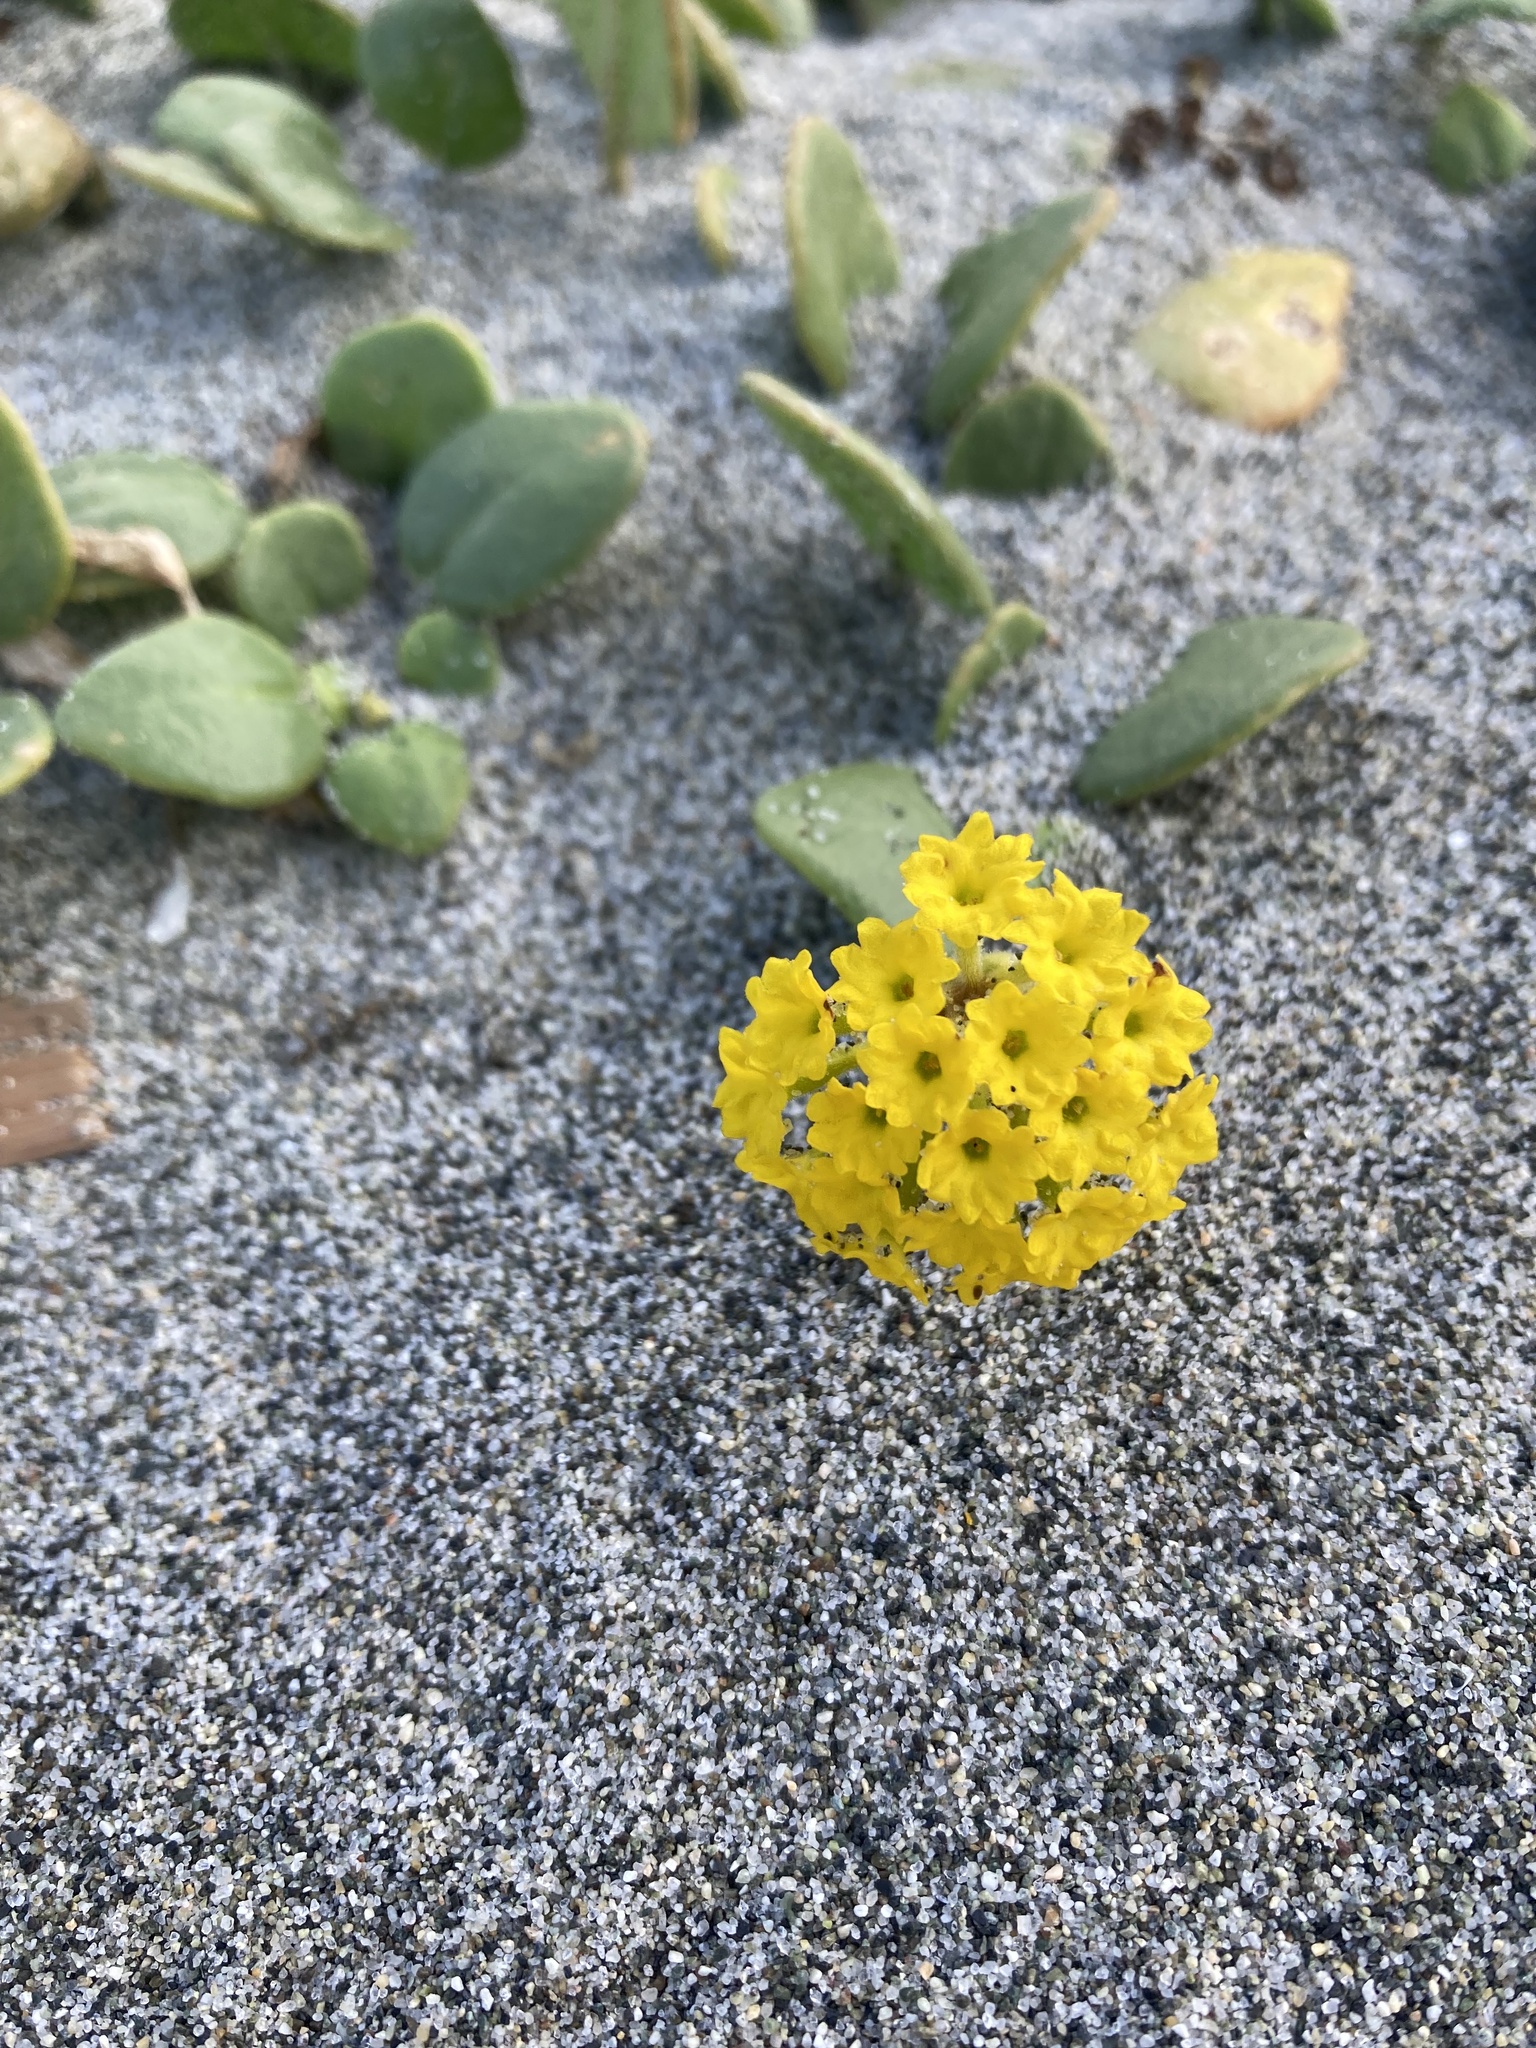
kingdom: Plantae
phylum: Tracheophyta
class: Magnoliopsida
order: Caryophyllales
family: Nyctaginaceae
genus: Abronia
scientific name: Abronia latifolia
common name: Yellow sand-verbena
